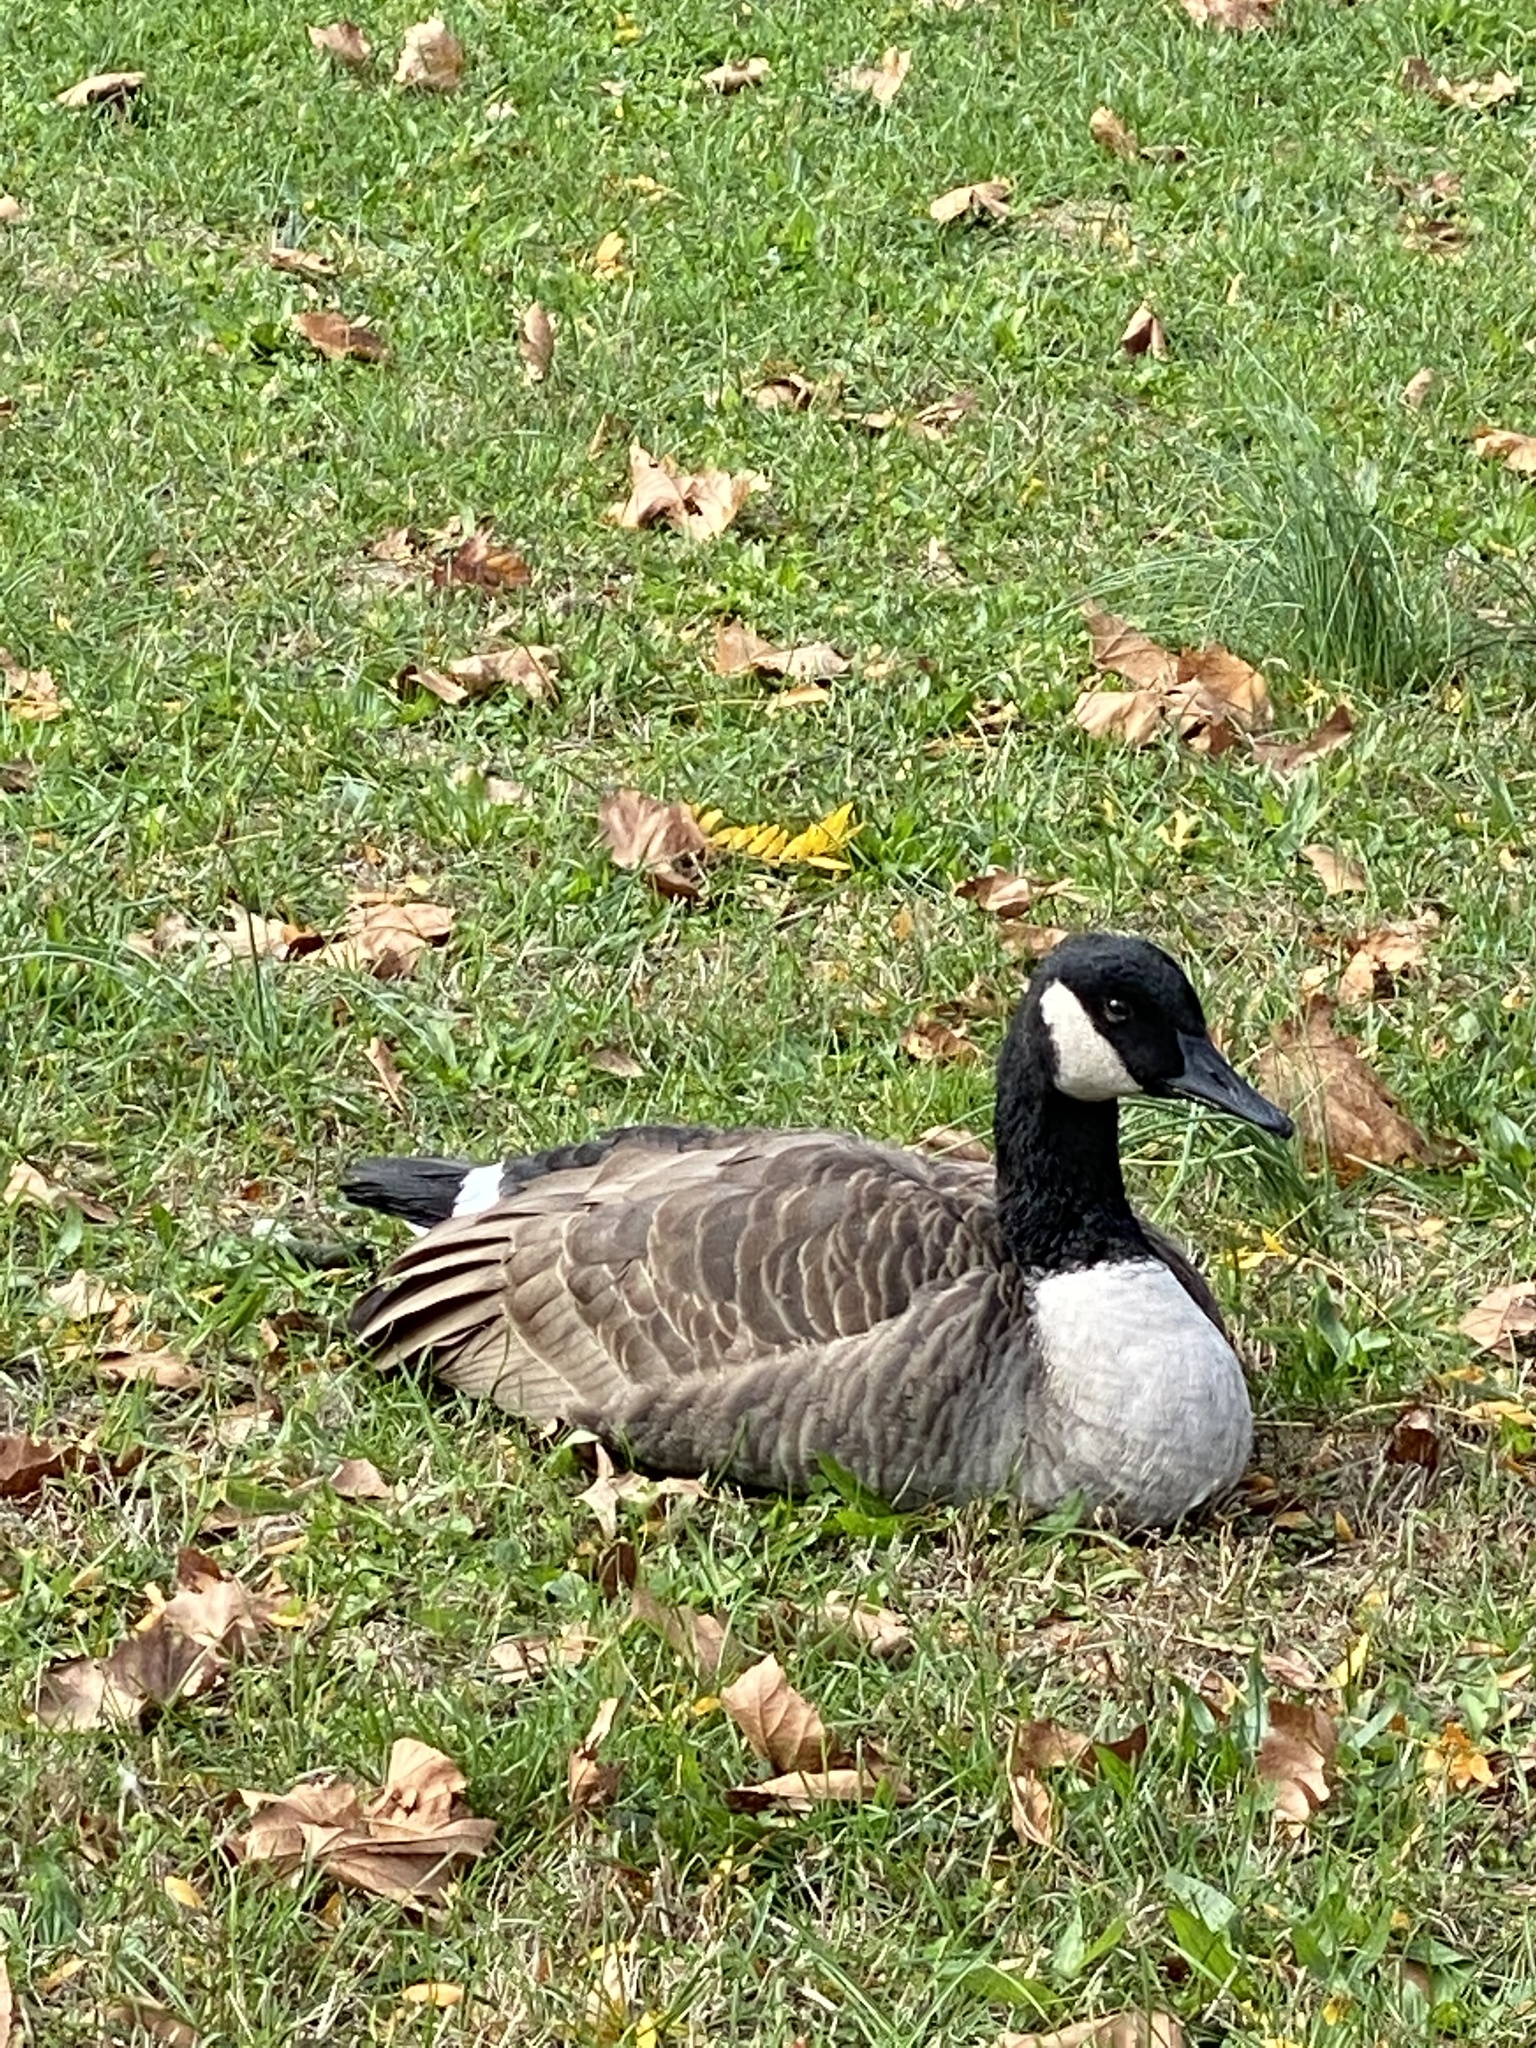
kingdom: Animalia
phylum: Chordata
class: Aves
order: Anseriformes
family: Anatidae
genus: Branta
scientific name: Branta canadensis
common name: Canada goose
